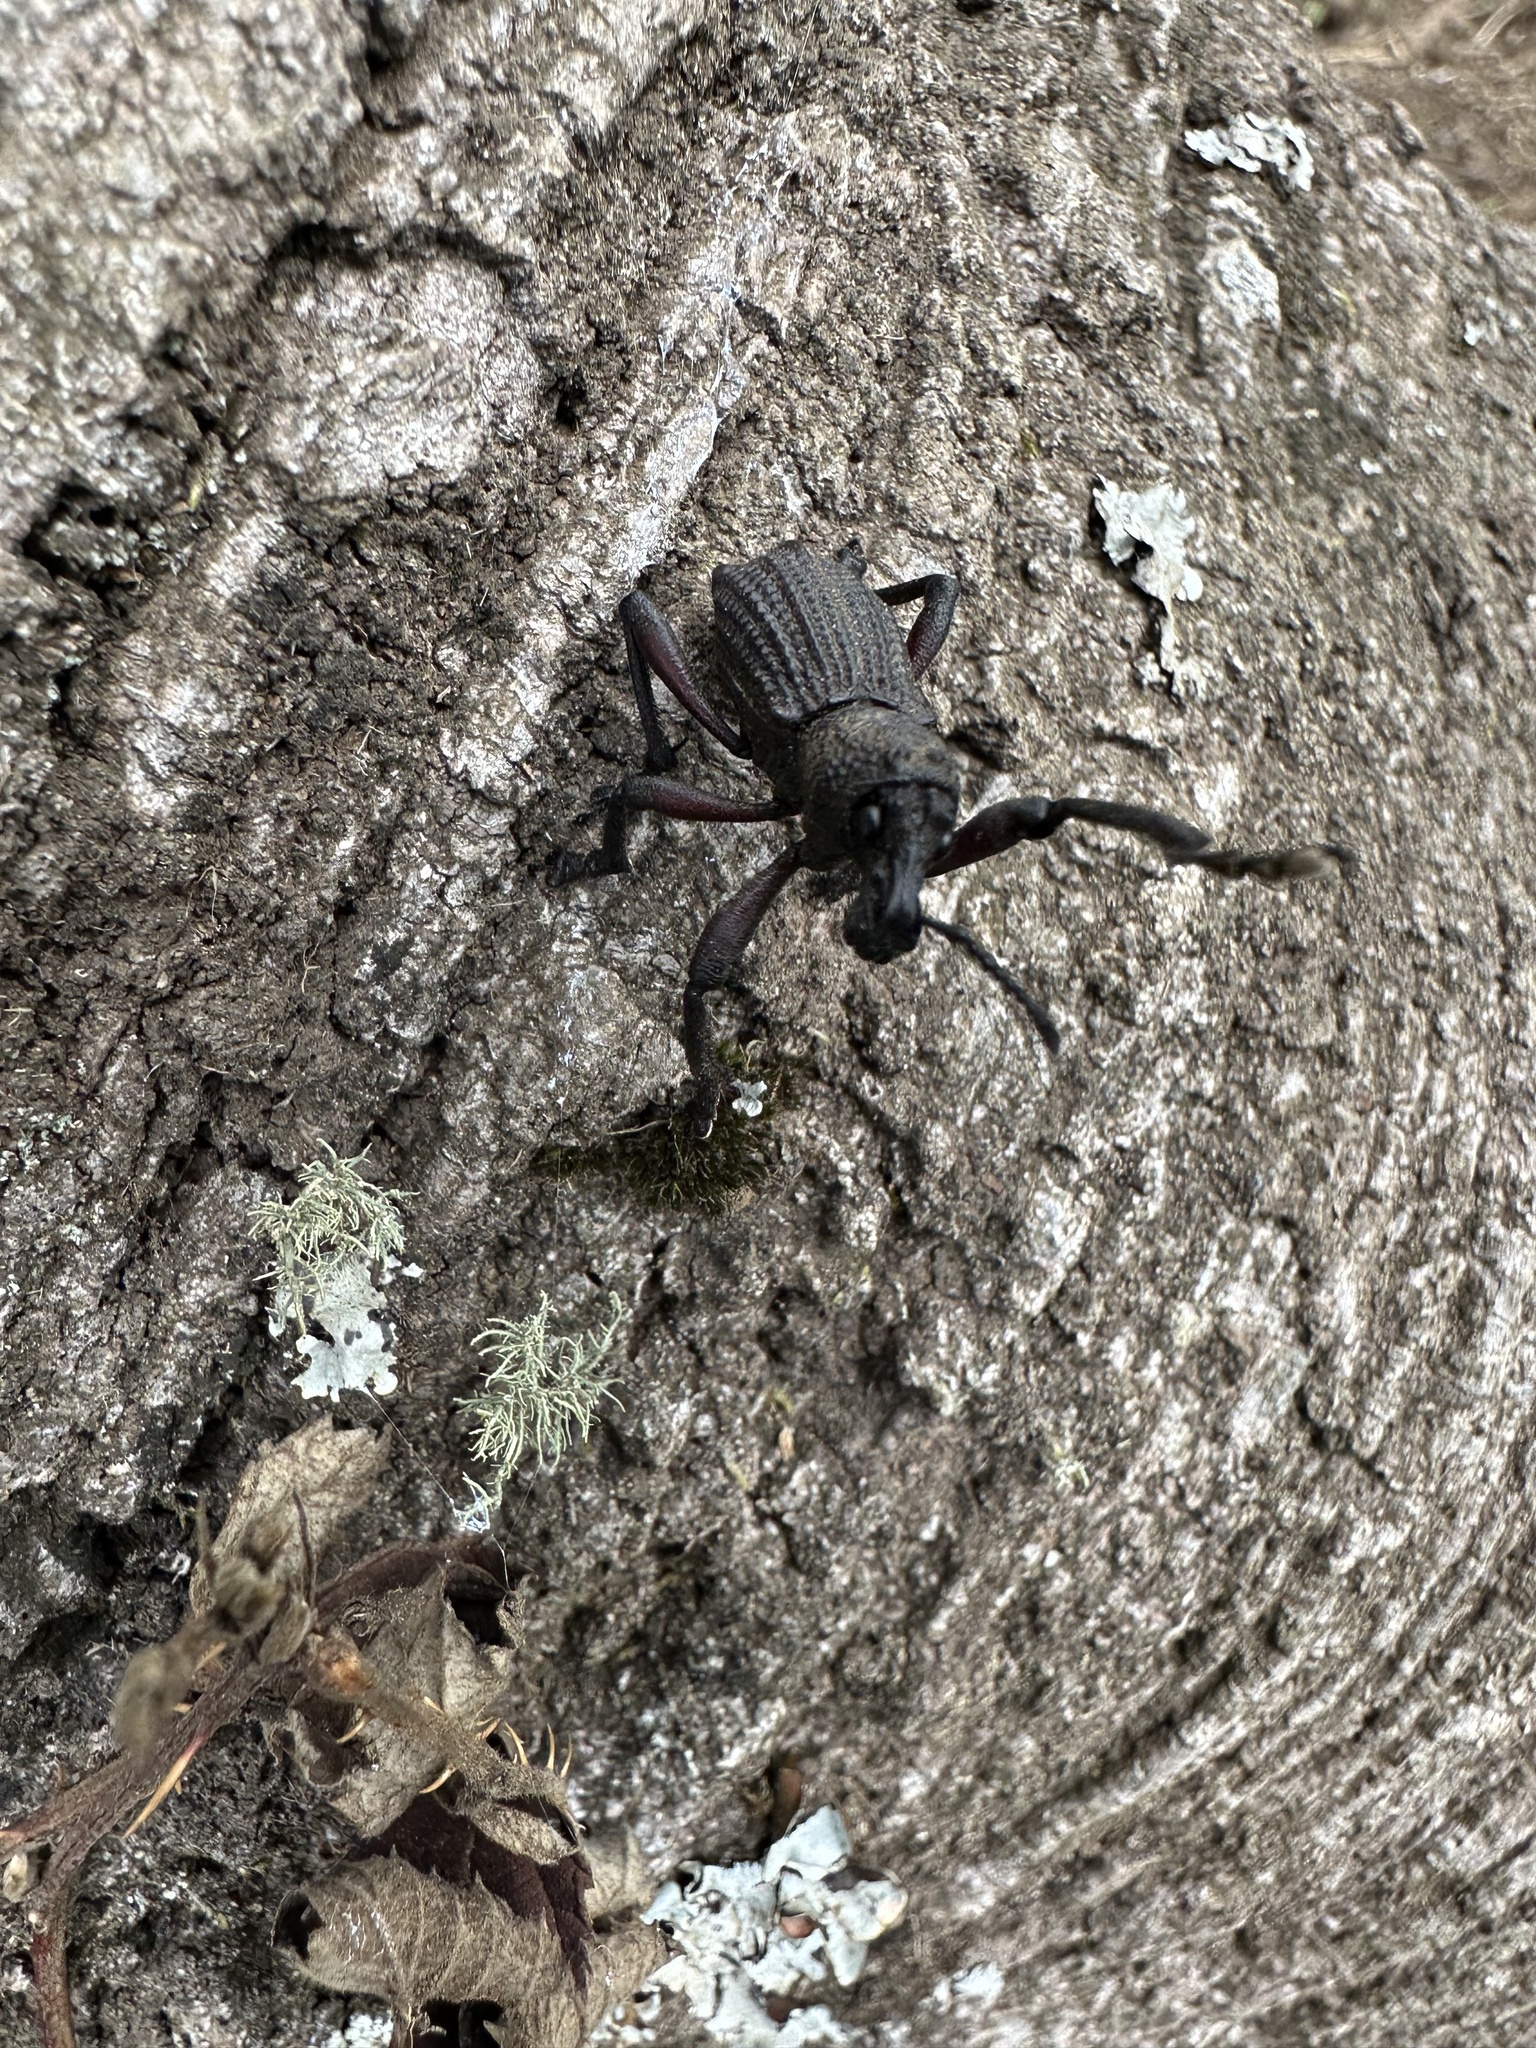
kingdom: Animalia
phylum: Arthropoda
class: Insecta
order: Coleoptera
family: Curculionidae
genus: Aegorhinus
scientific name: Aegorhinus
